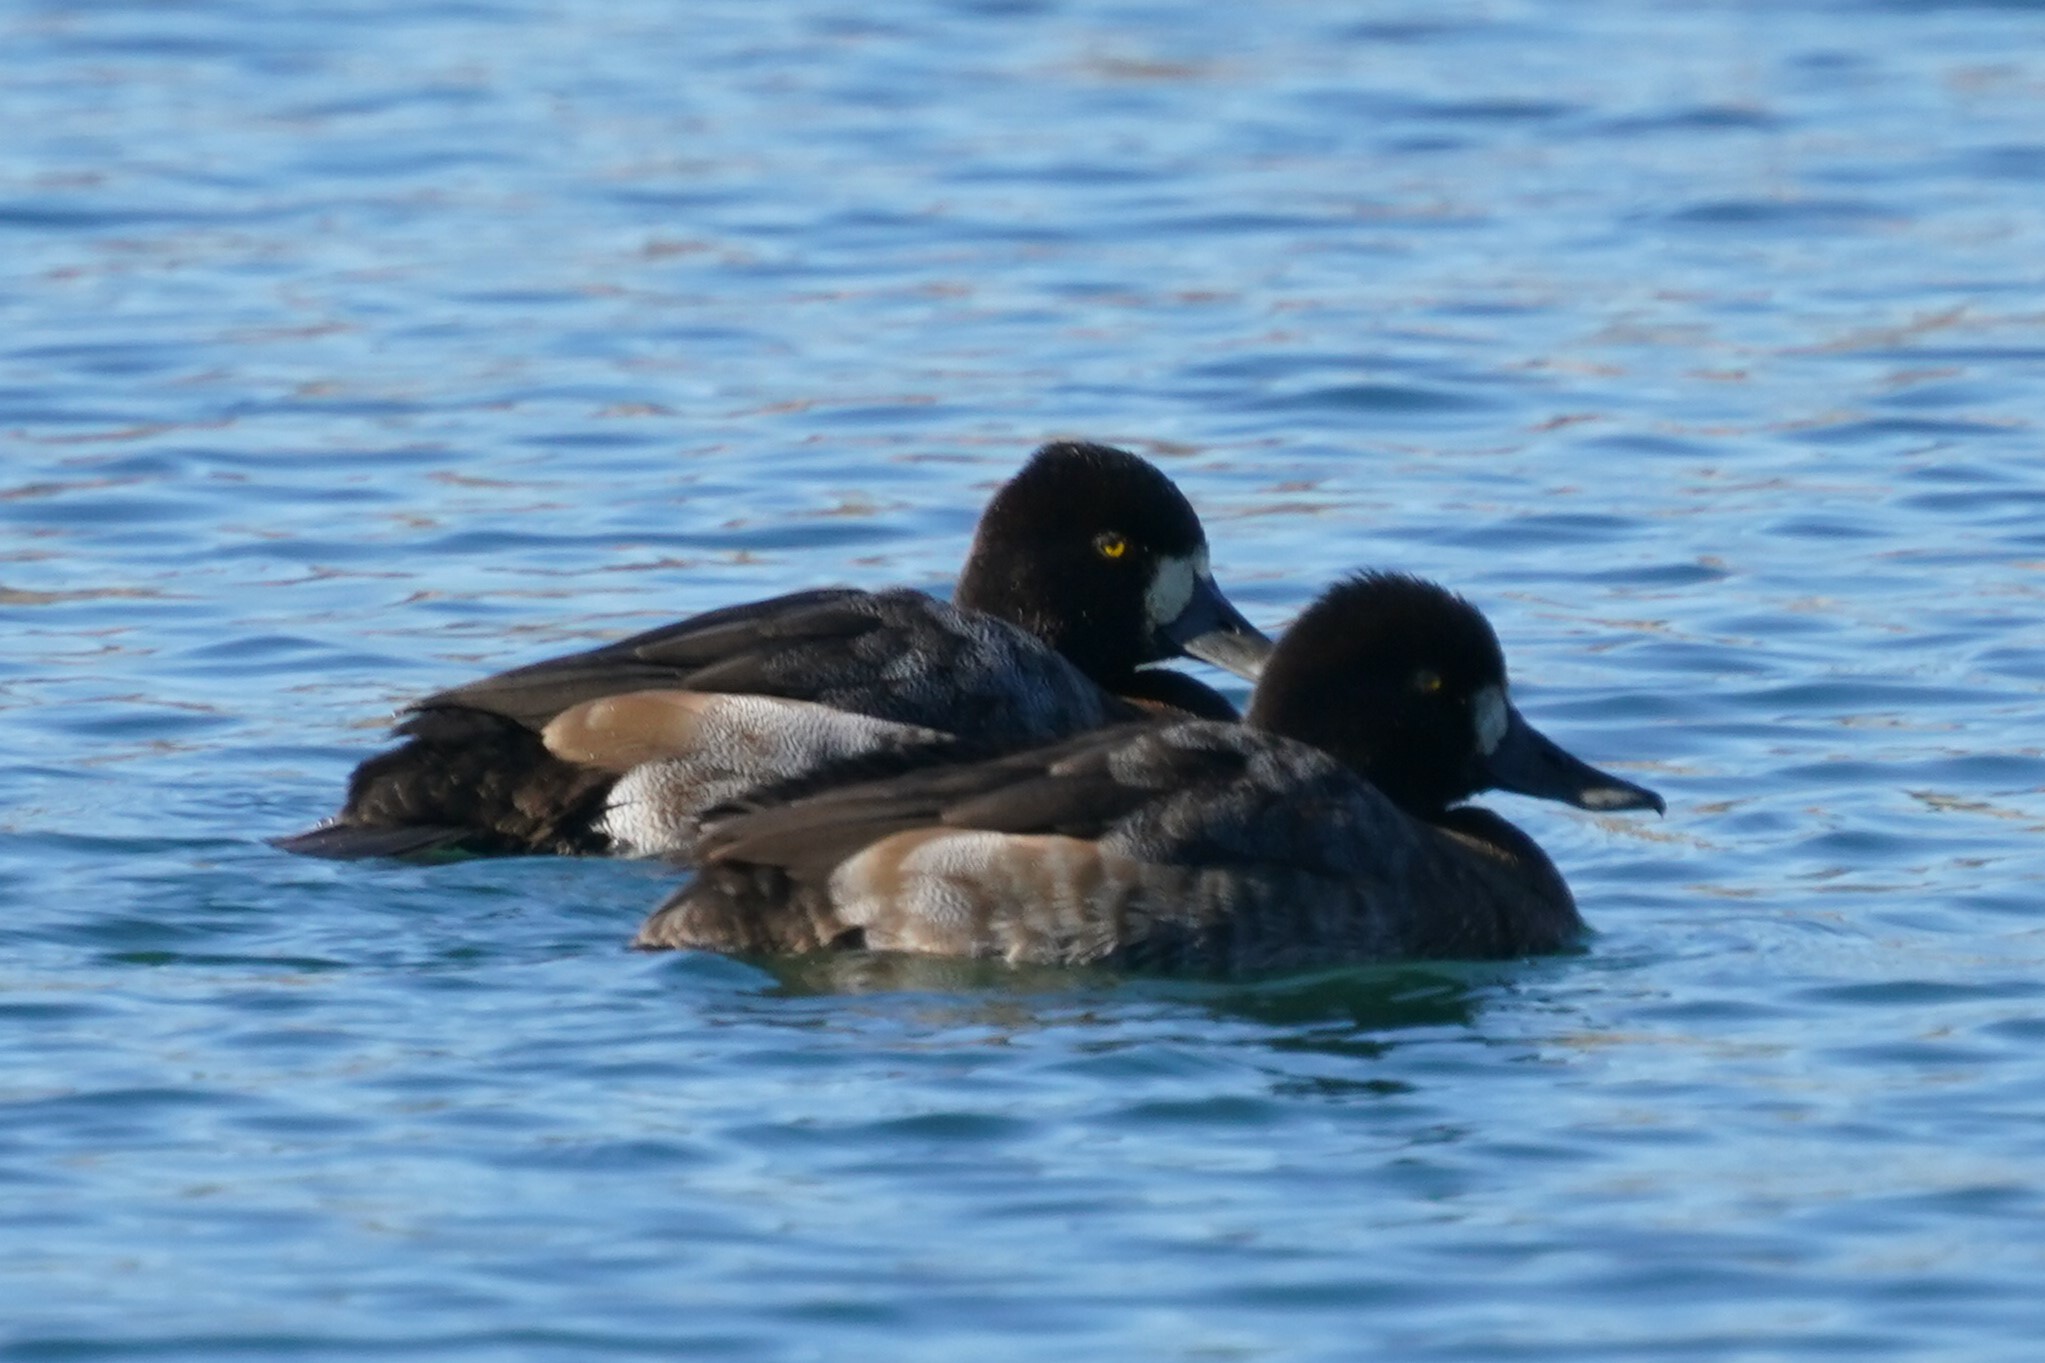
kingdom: Animalia
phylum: Chordata
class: Aves
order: Anseriformes
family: Anatidae
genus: Aythya
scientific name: Aythya affinis
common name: Lesser scaup
